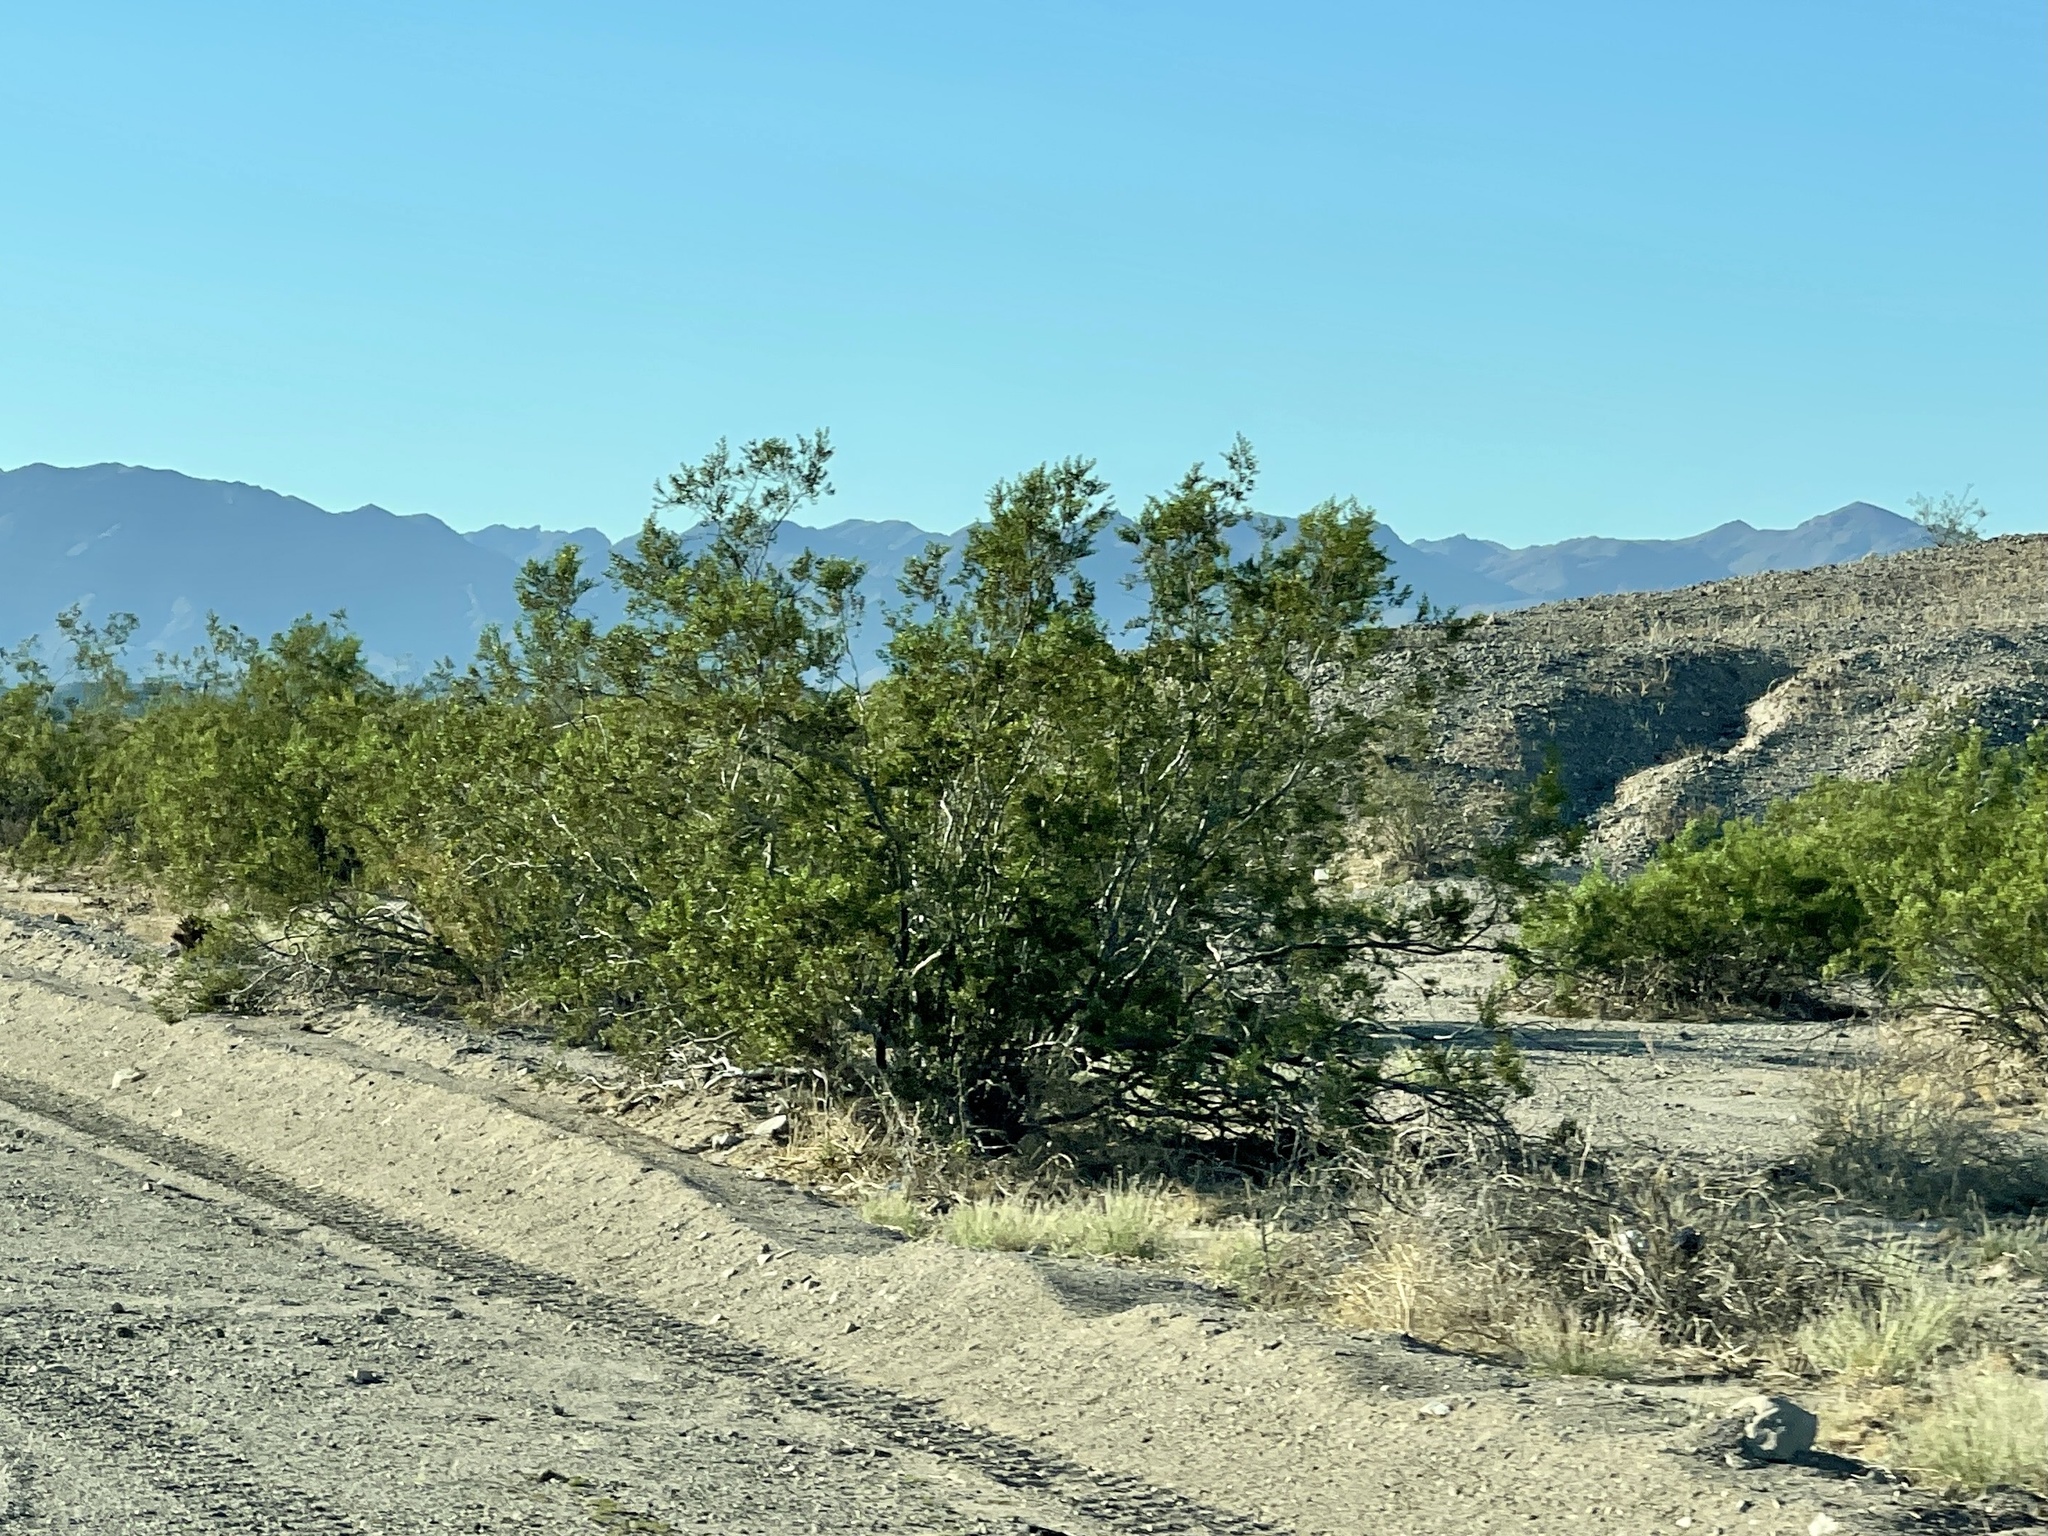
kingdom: Plantae
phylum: Tracheophyta
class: Magnoliopsida
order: Zygophyllales
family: Zygophyllaceae
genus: Larrea
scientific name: Larrea tridentata
